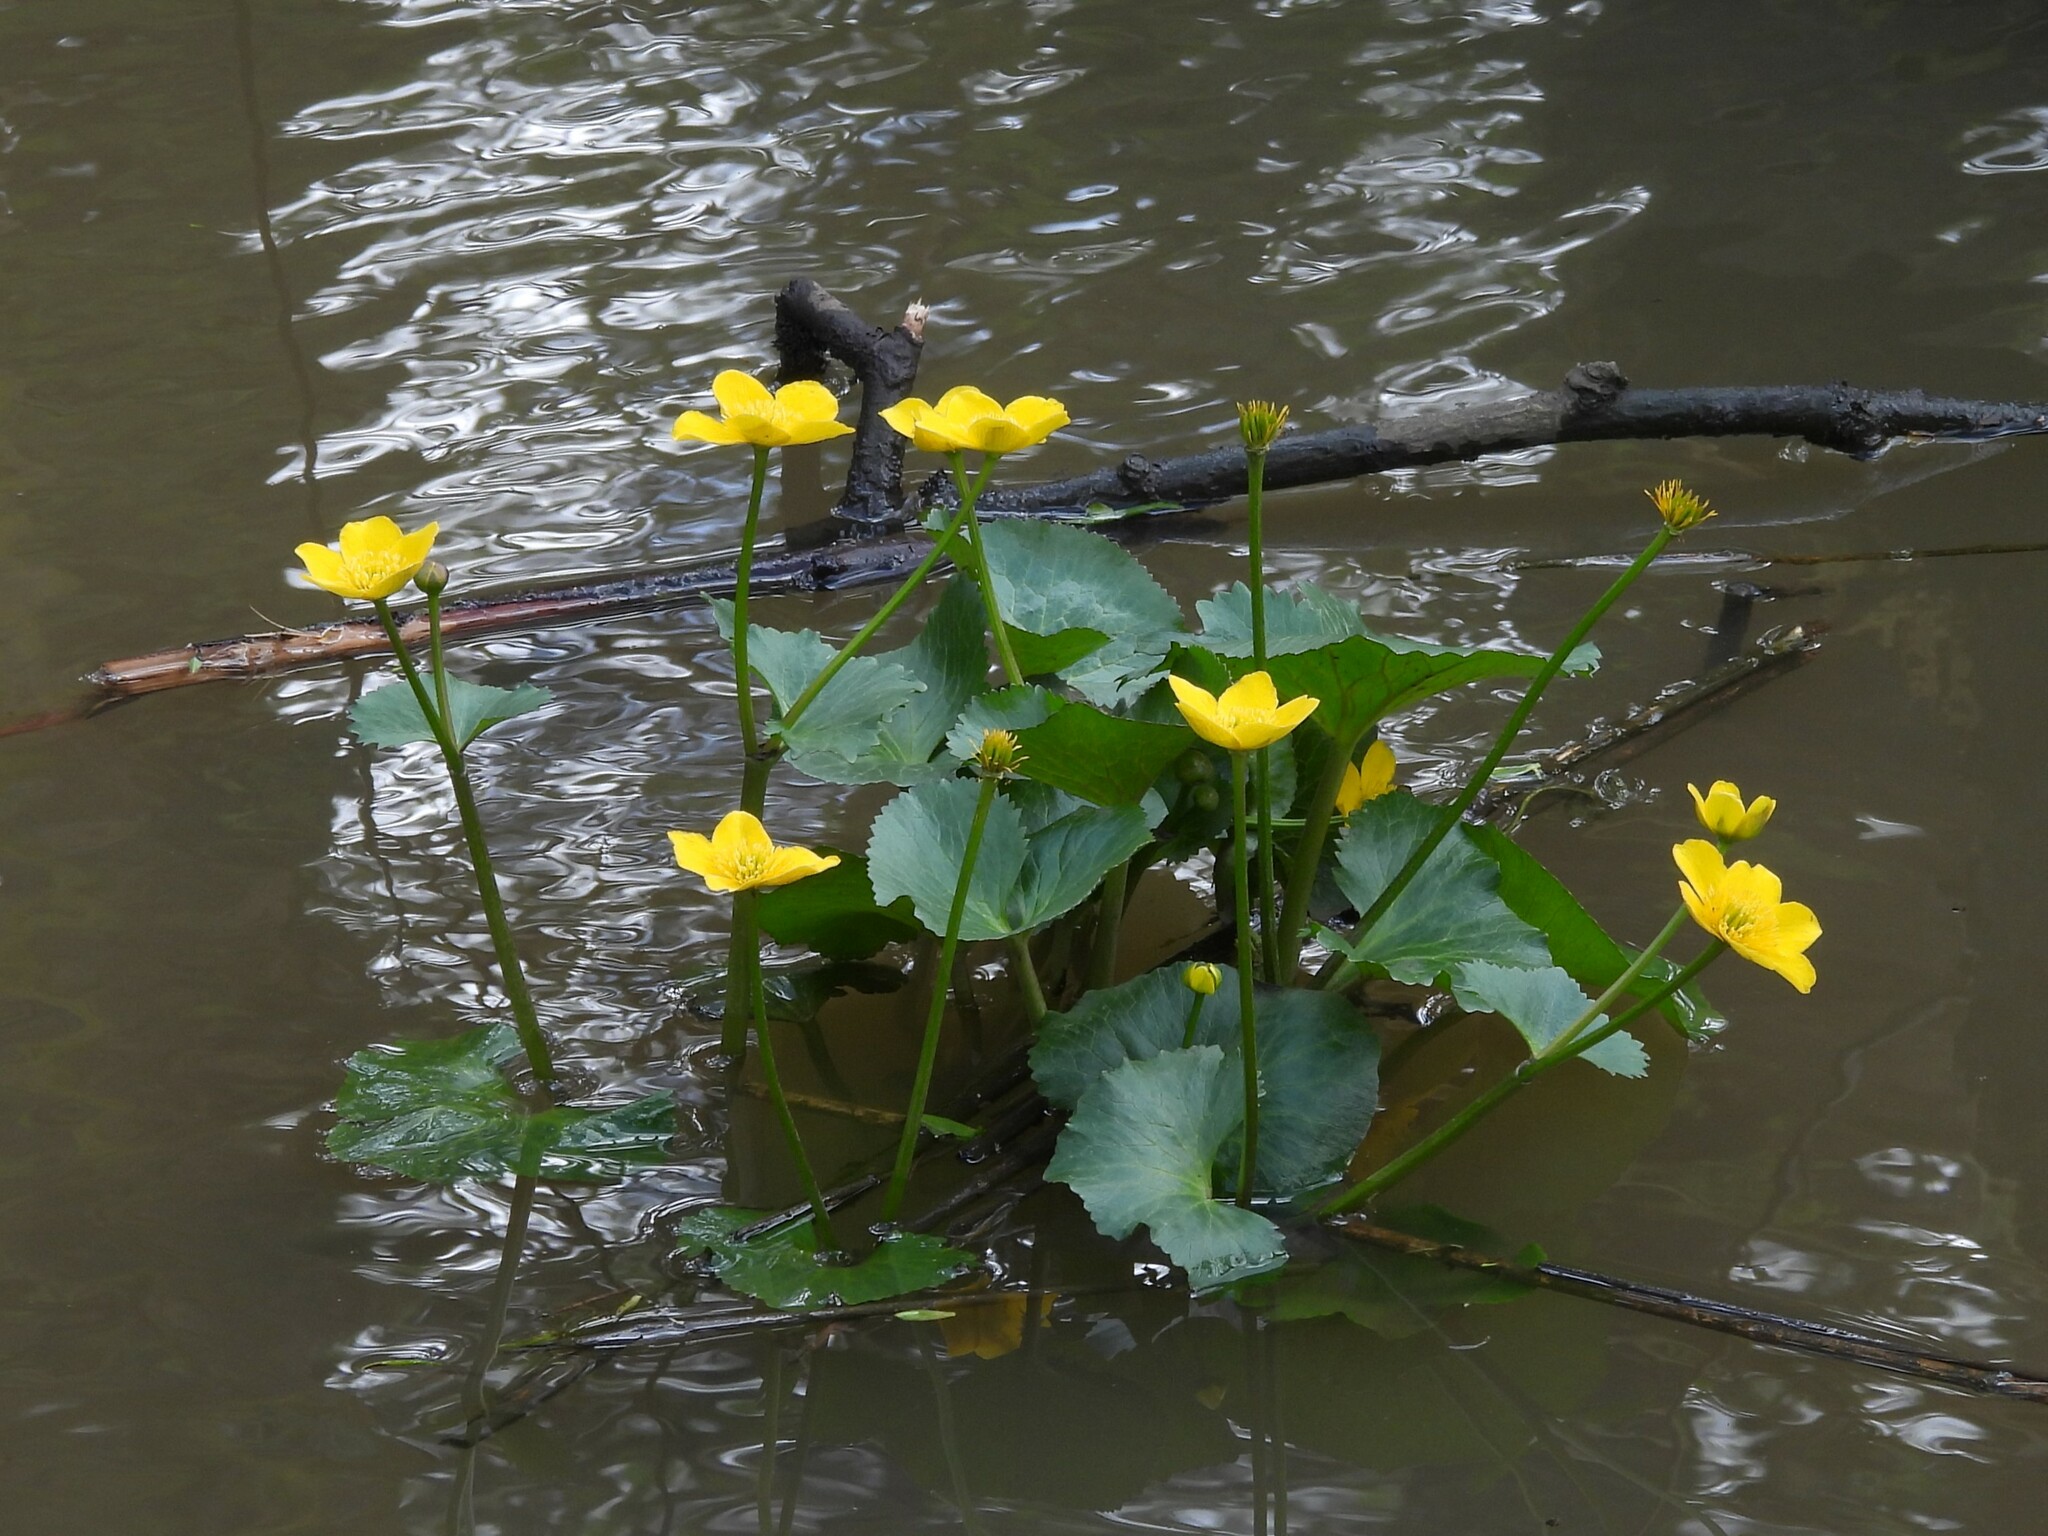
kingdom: Plantae
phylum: Tracheophyta
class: Magnoliopsida
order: Ranunculales
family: Ranunculaceae
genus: Caltha
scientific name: Caltha palustris
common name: Marsh marigold
